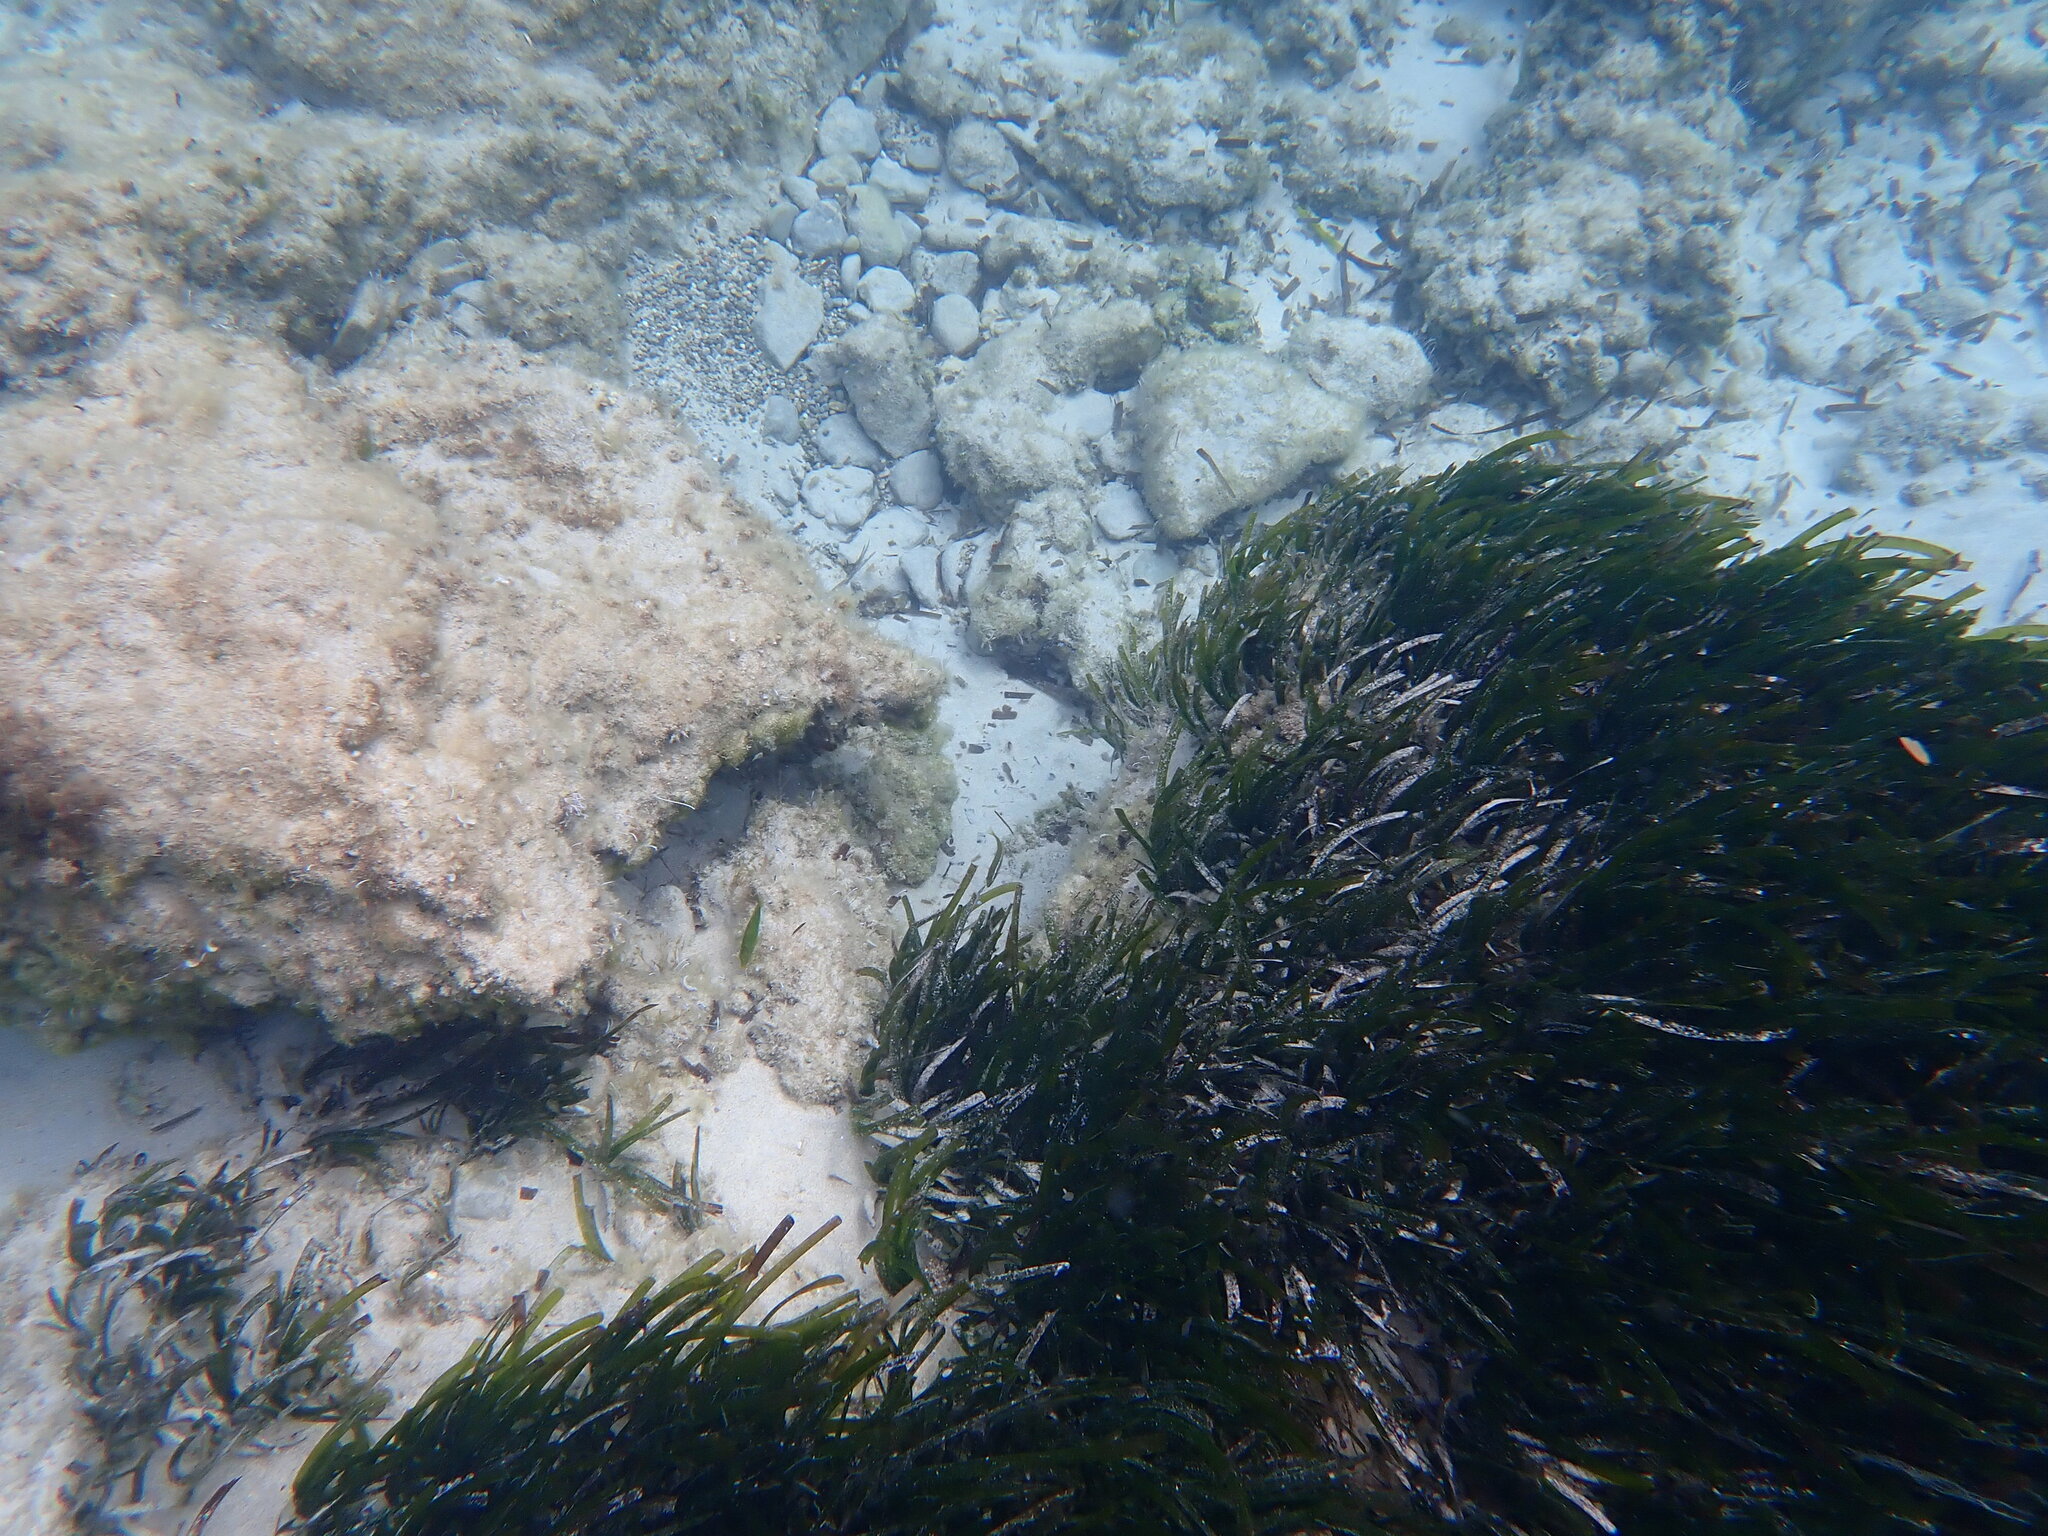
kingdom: Plantae
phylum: Tracheophyta
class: Liliopsida
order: Alismatales
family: Posidoniaceae
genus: Posidonia
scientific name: Posidonia oceanica
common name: Mediterranean tapeweed
